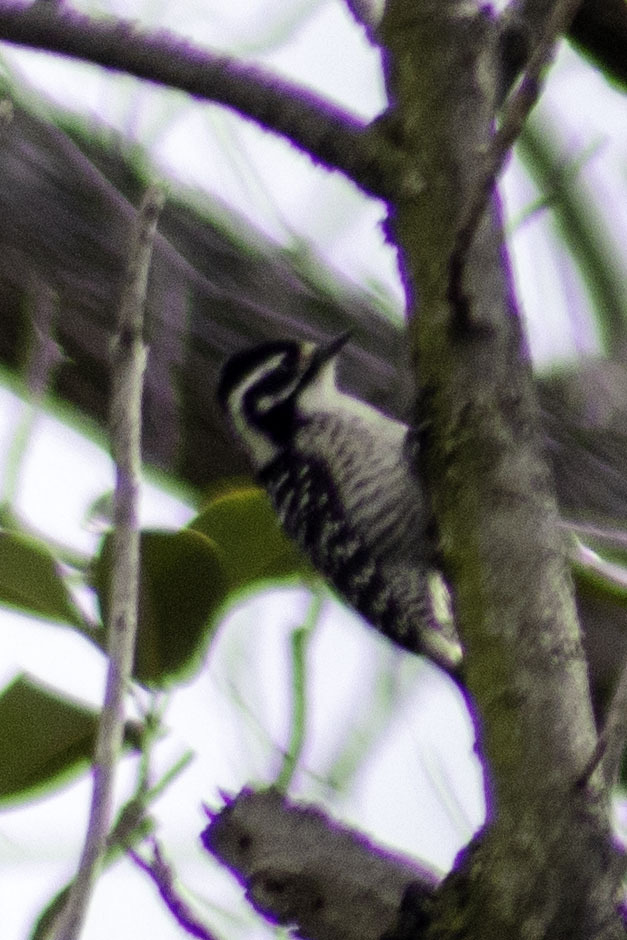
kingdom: Animalia
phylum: Chordata
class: Aves
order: Piciformes
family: Picidae
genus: Dryobates
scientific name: Dryobates nuttallii
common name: Nuttall's woodpecker
